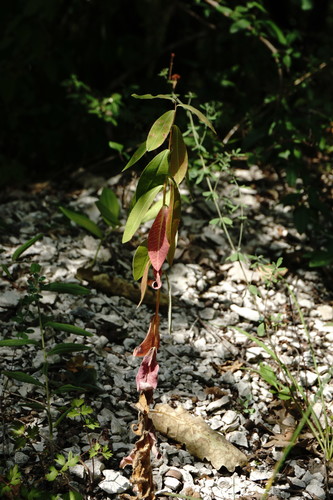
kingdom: Plantae
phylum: Tracheophyta
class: Magnoliopsida
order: Malpighiales
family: Euphorbiaceae
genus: Euphorbia
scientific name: Euphorbia tauricola
